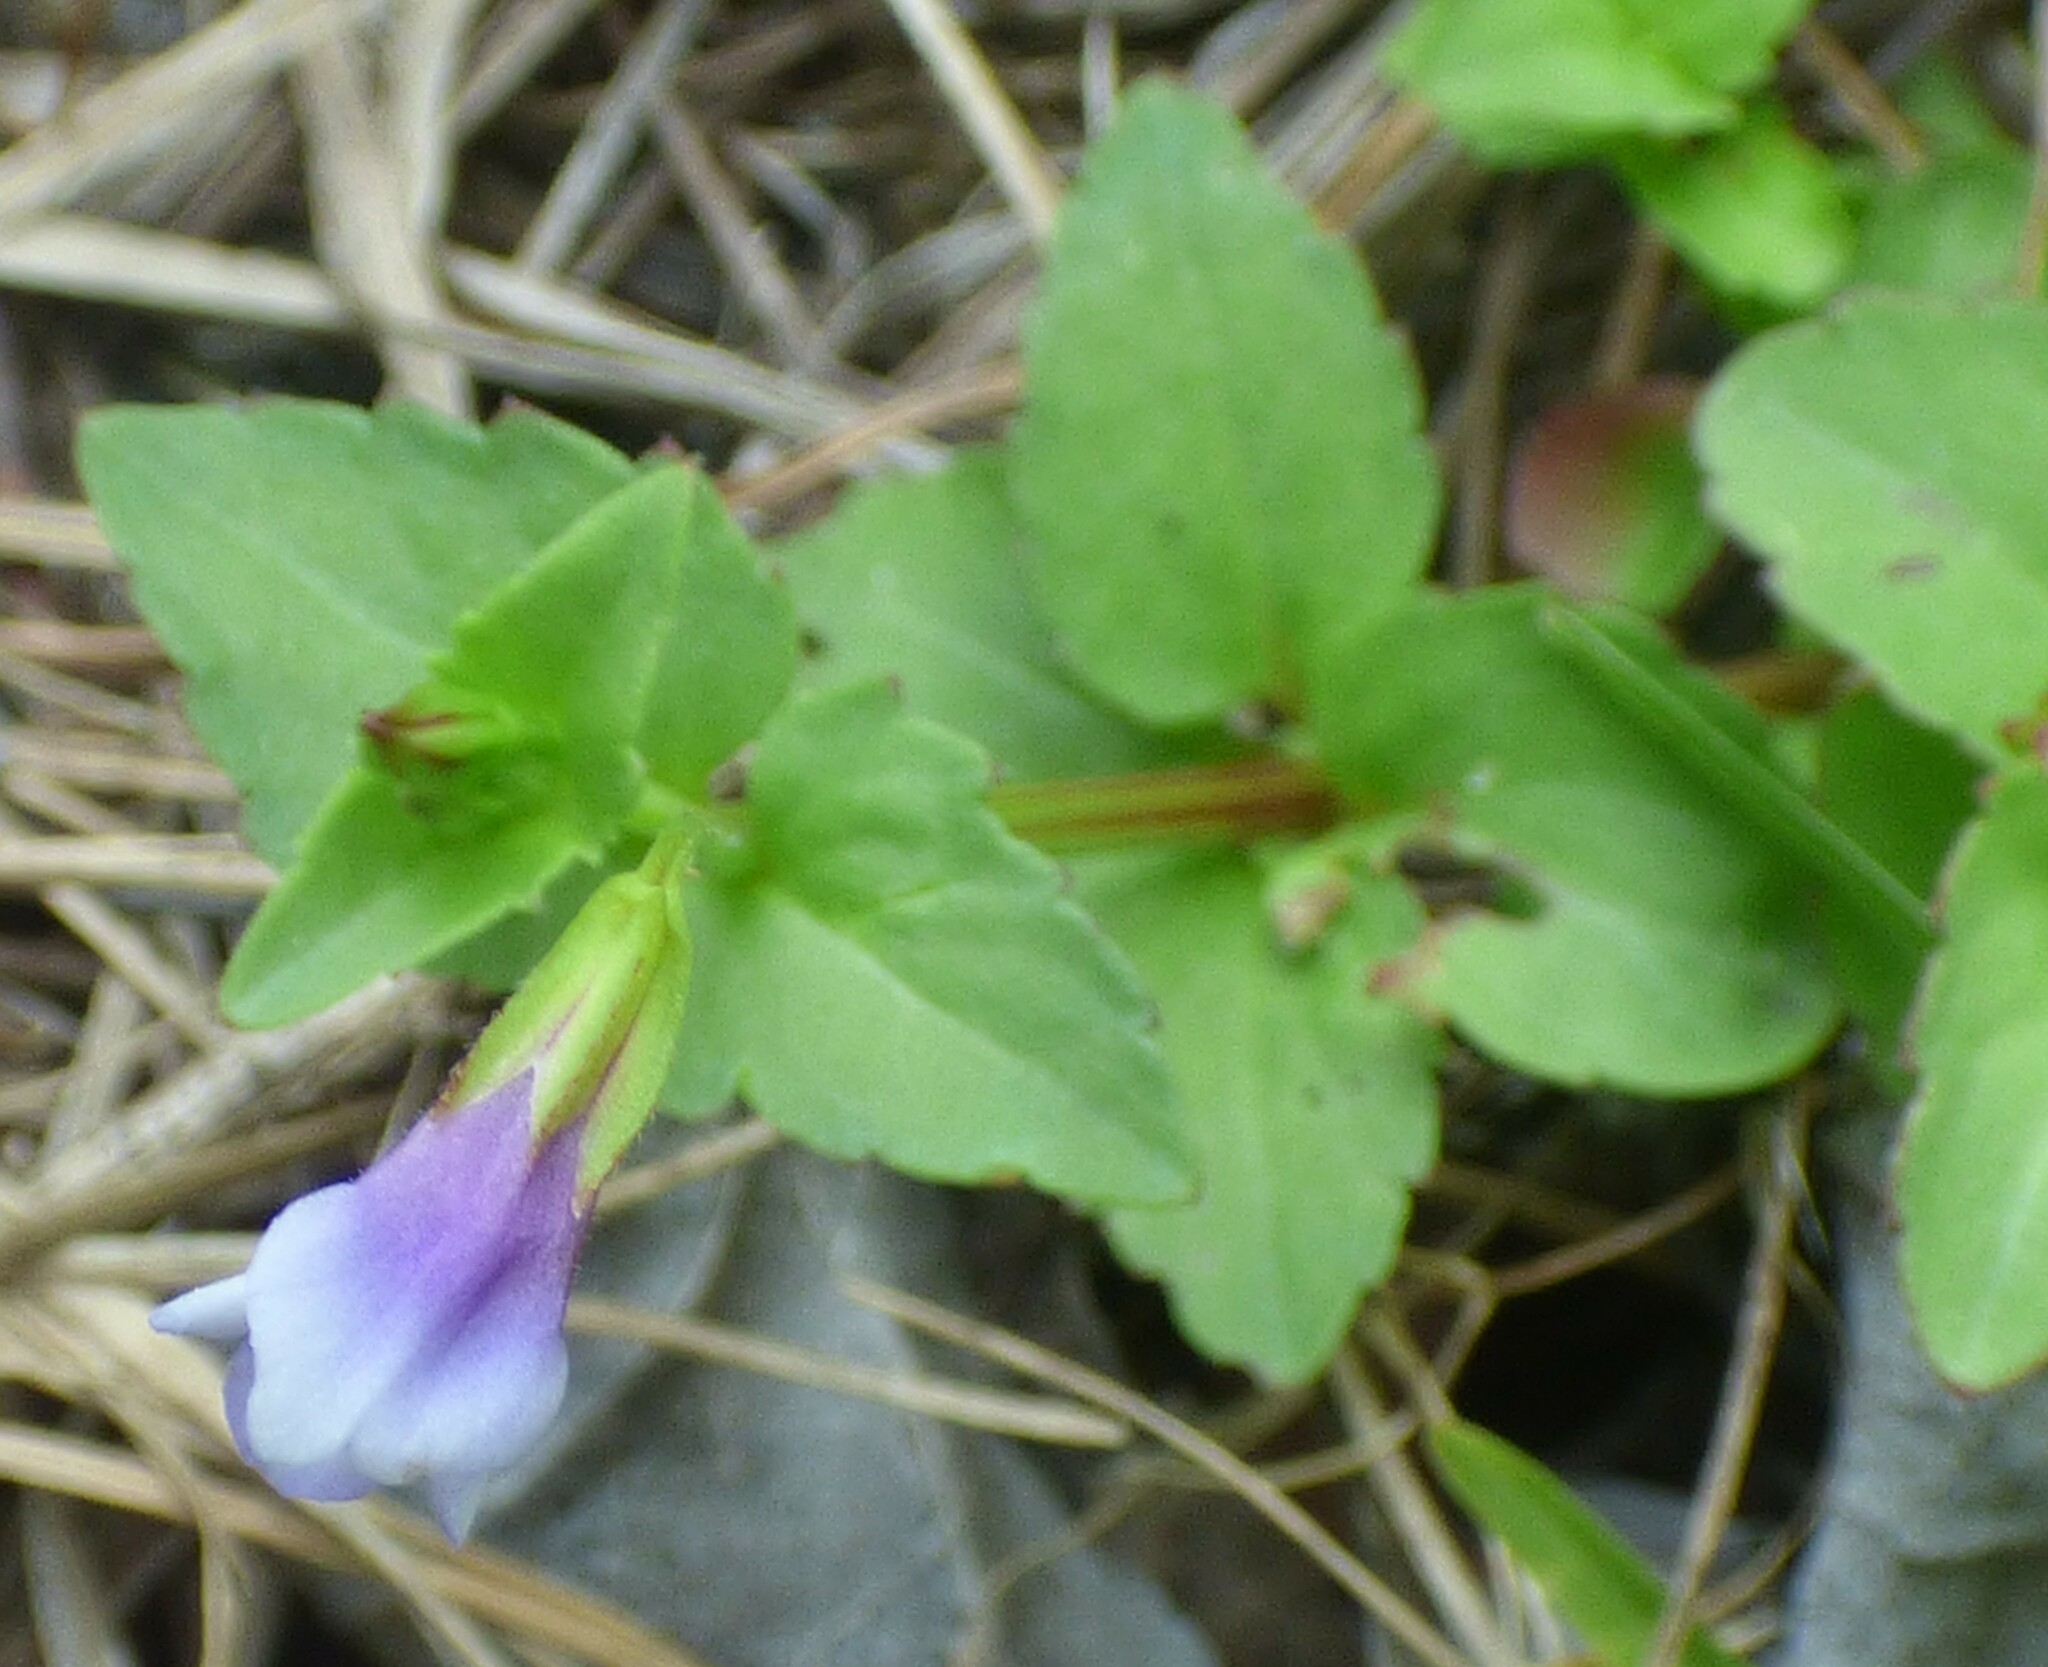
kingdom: Plantae
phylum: Tracheophyta
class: Magnoliopsida
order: Lamiales
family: Linderniaceae
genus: Torenia
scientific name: Torenia crustacea
